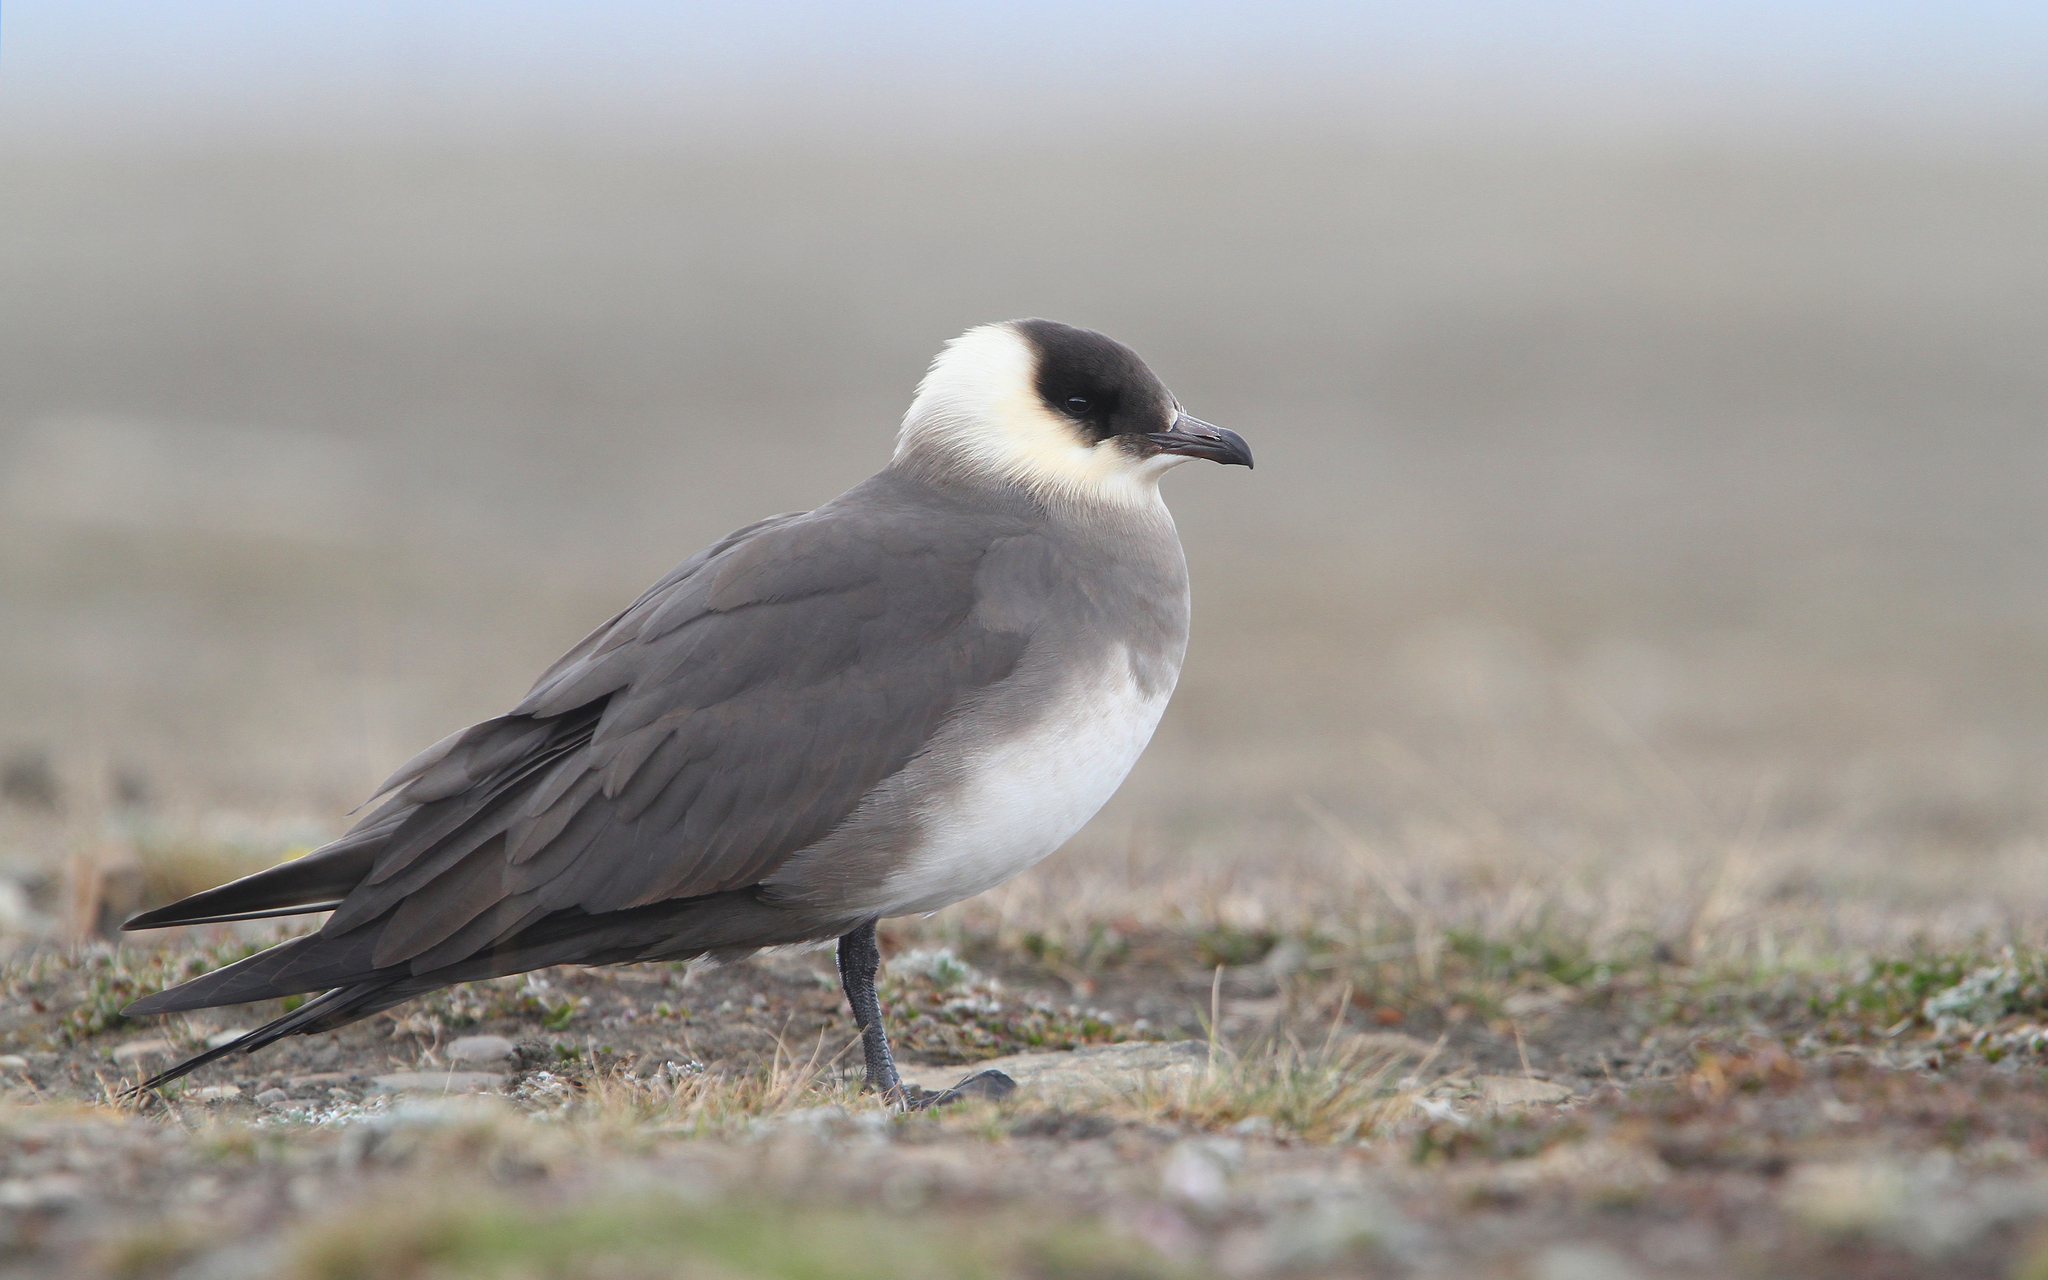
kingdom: Animalia
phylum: Chordata
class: Aves
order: Charadriiformes
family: Stercorariidae
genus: Stercorarius
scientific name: Stercorarius parasiticus
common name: Parasitic jaeger
